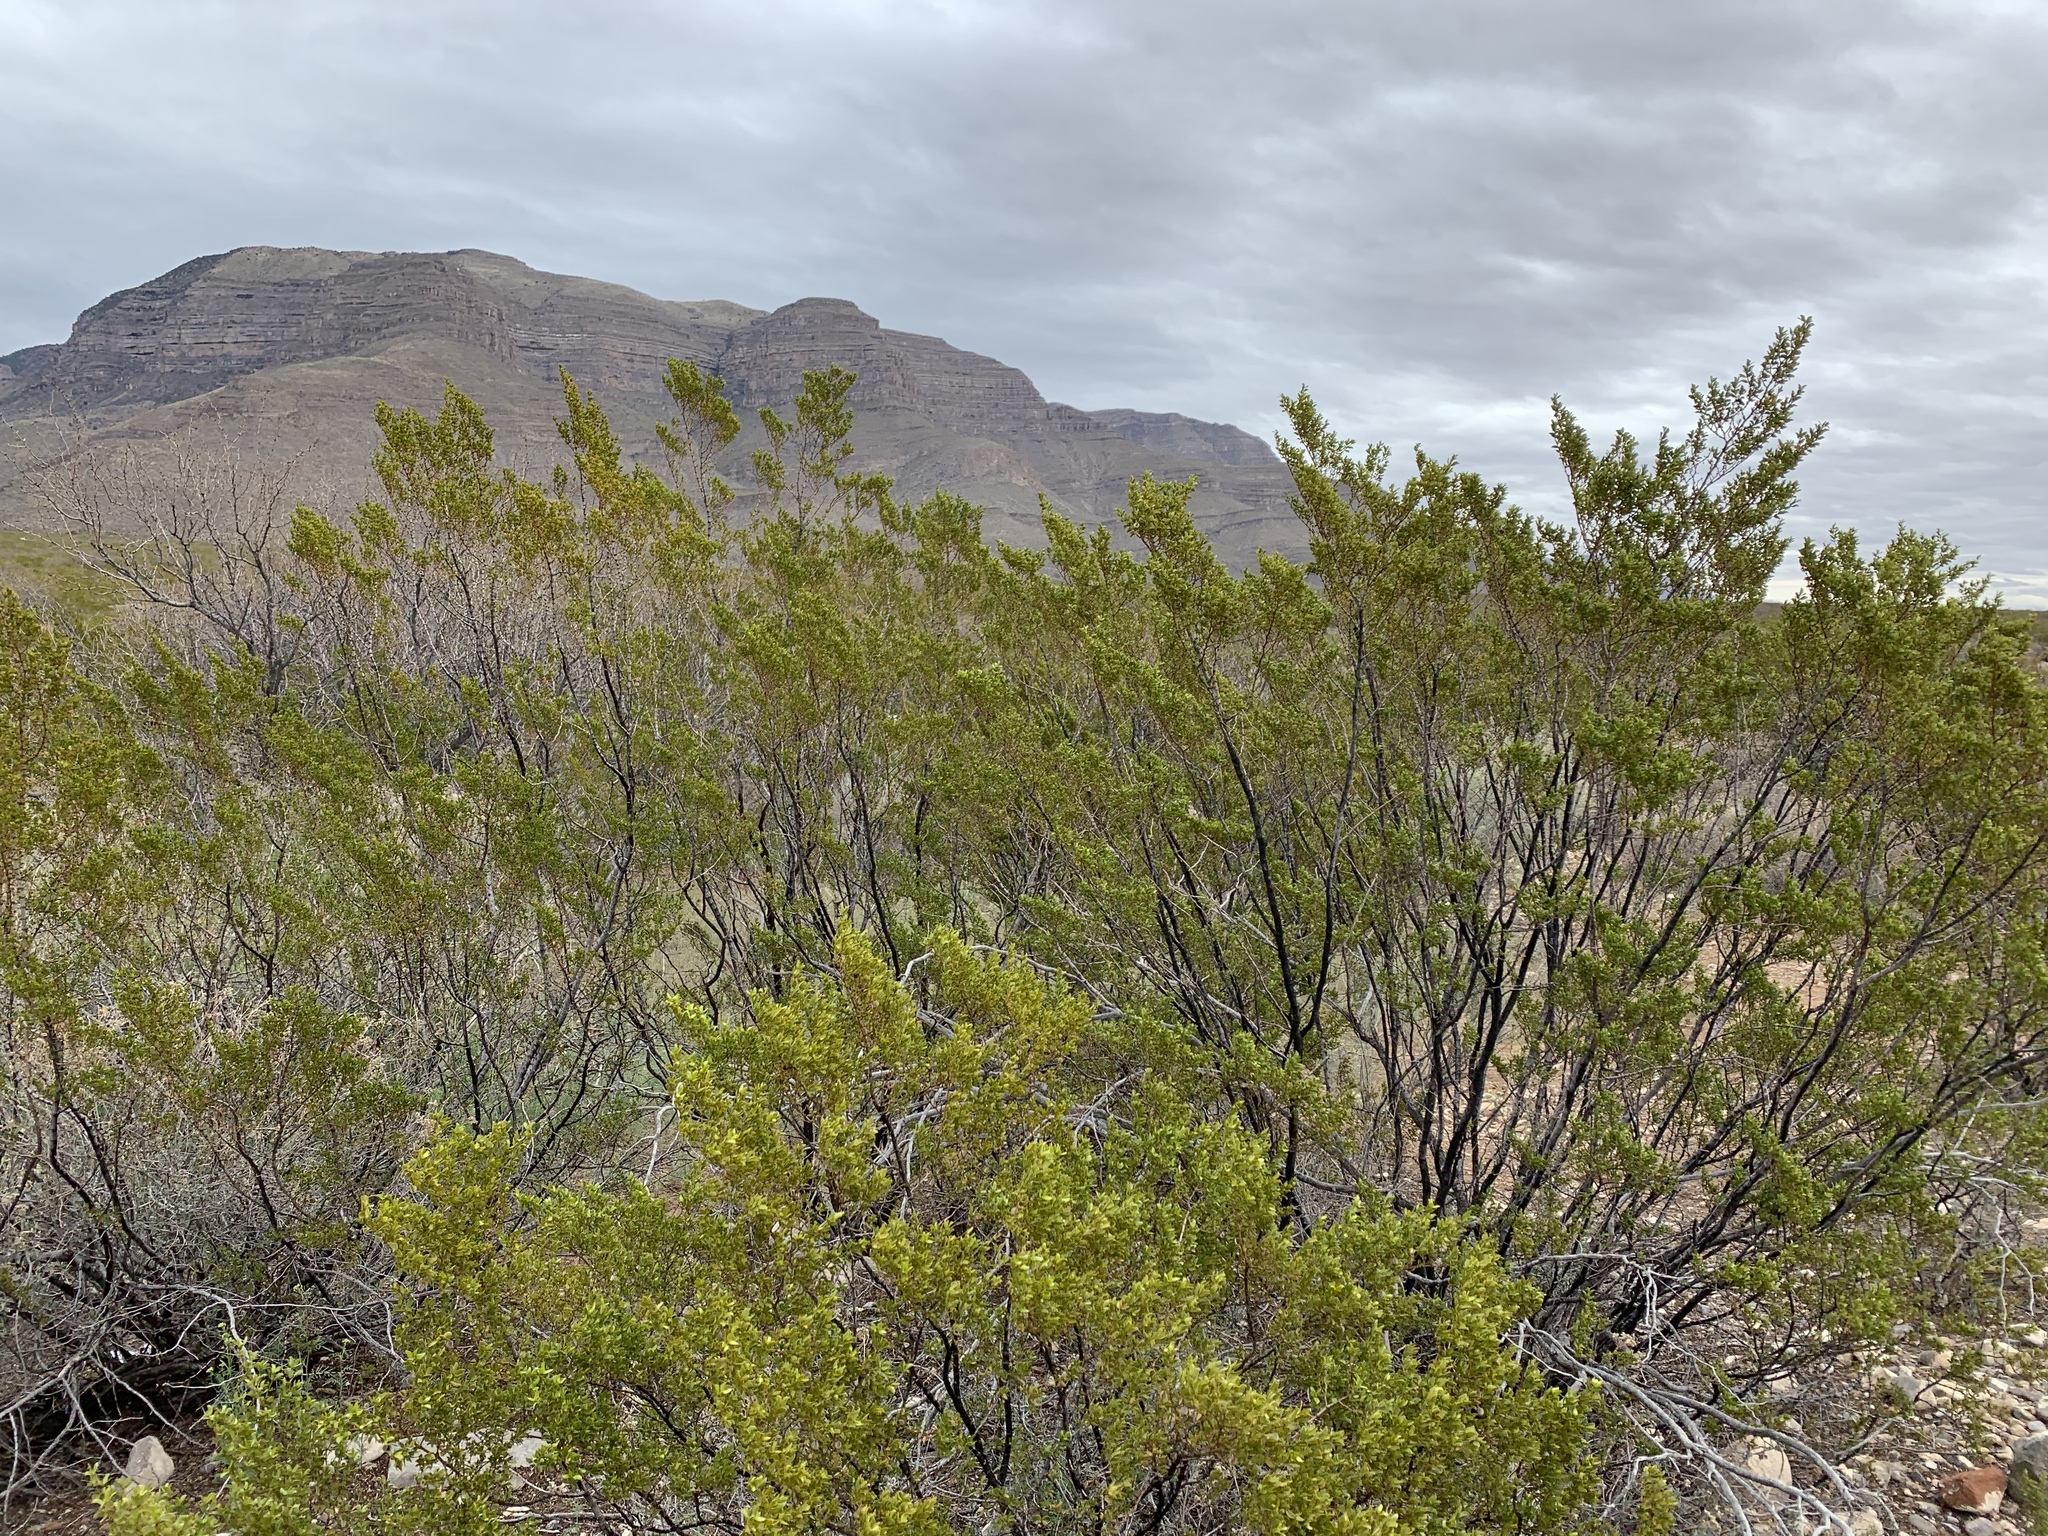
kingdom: Plantae
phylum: Tracheophyta
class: Magnoliopsida
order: Zygophyllales
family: Zygophyllaceae
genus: Larrea
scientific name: Larrea tridentata
